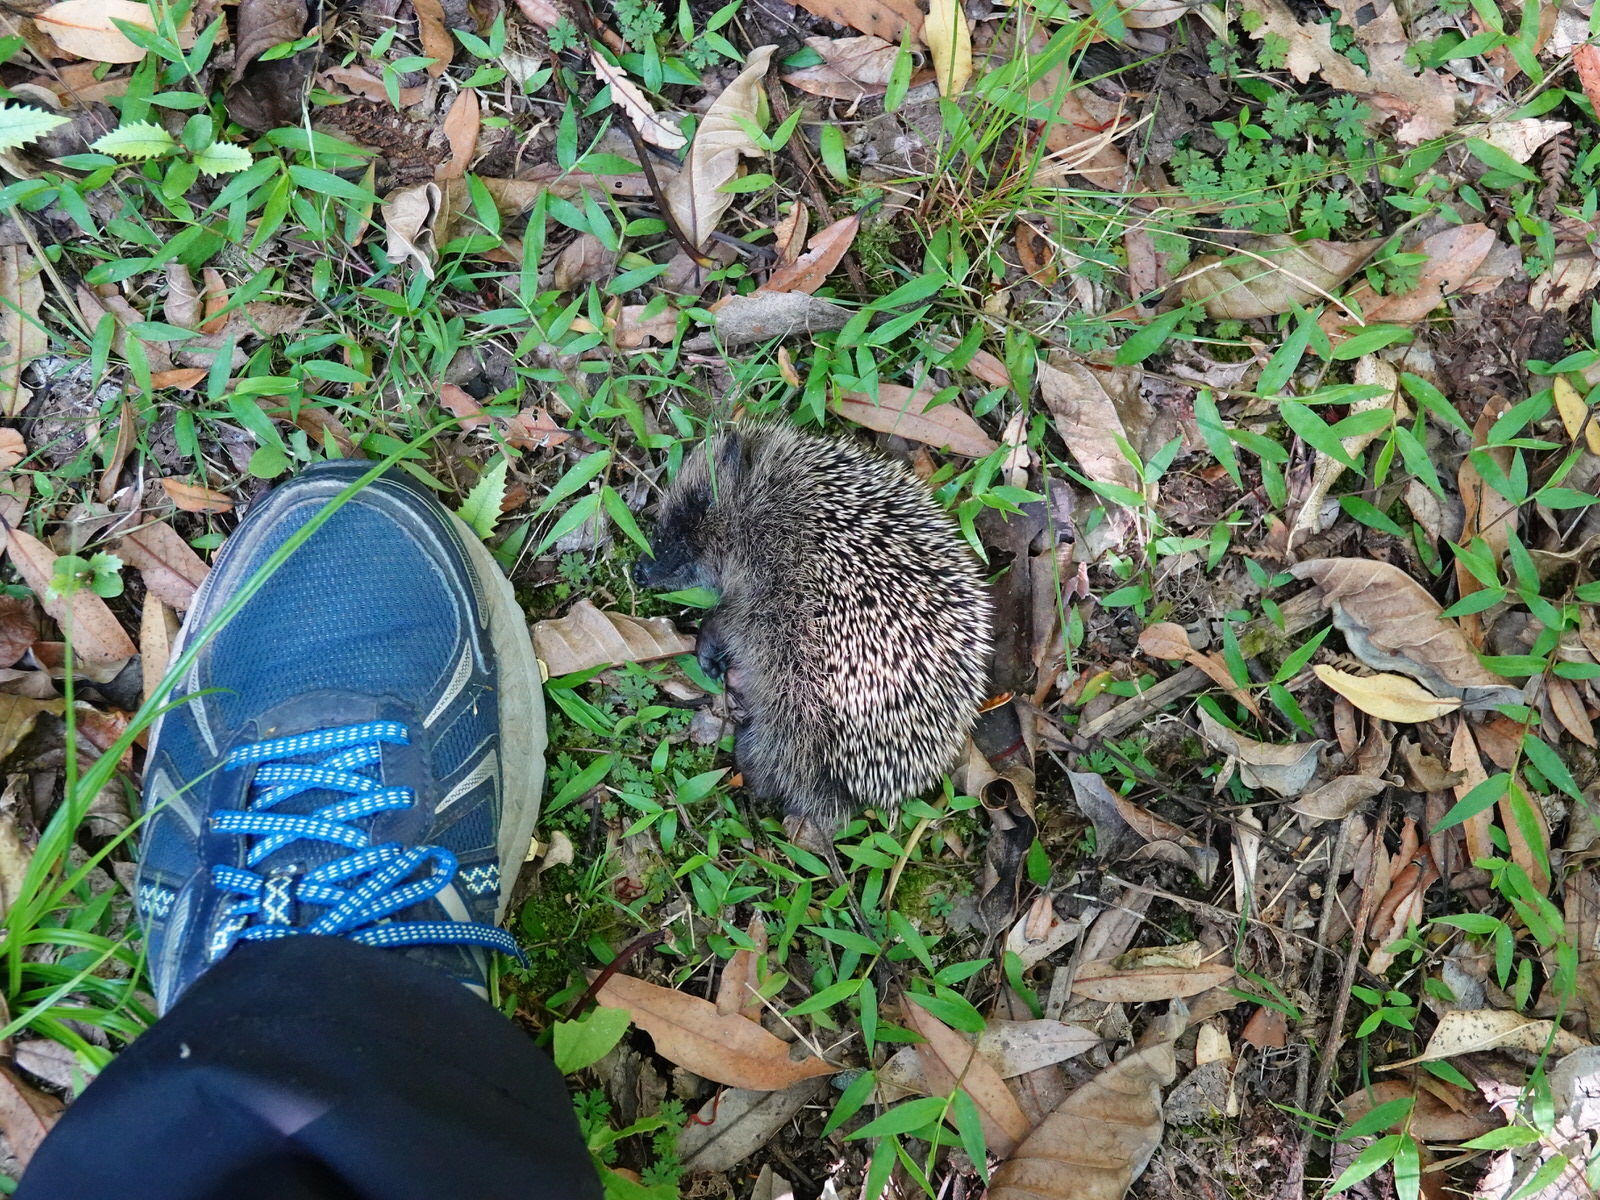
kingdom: Animalia
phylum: Chordata
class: Mammalia
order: Erinaceomorpha
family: Erinaceidae
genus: Erinaceus
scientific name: Erinaceus europaeus
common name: West european hedgehog
